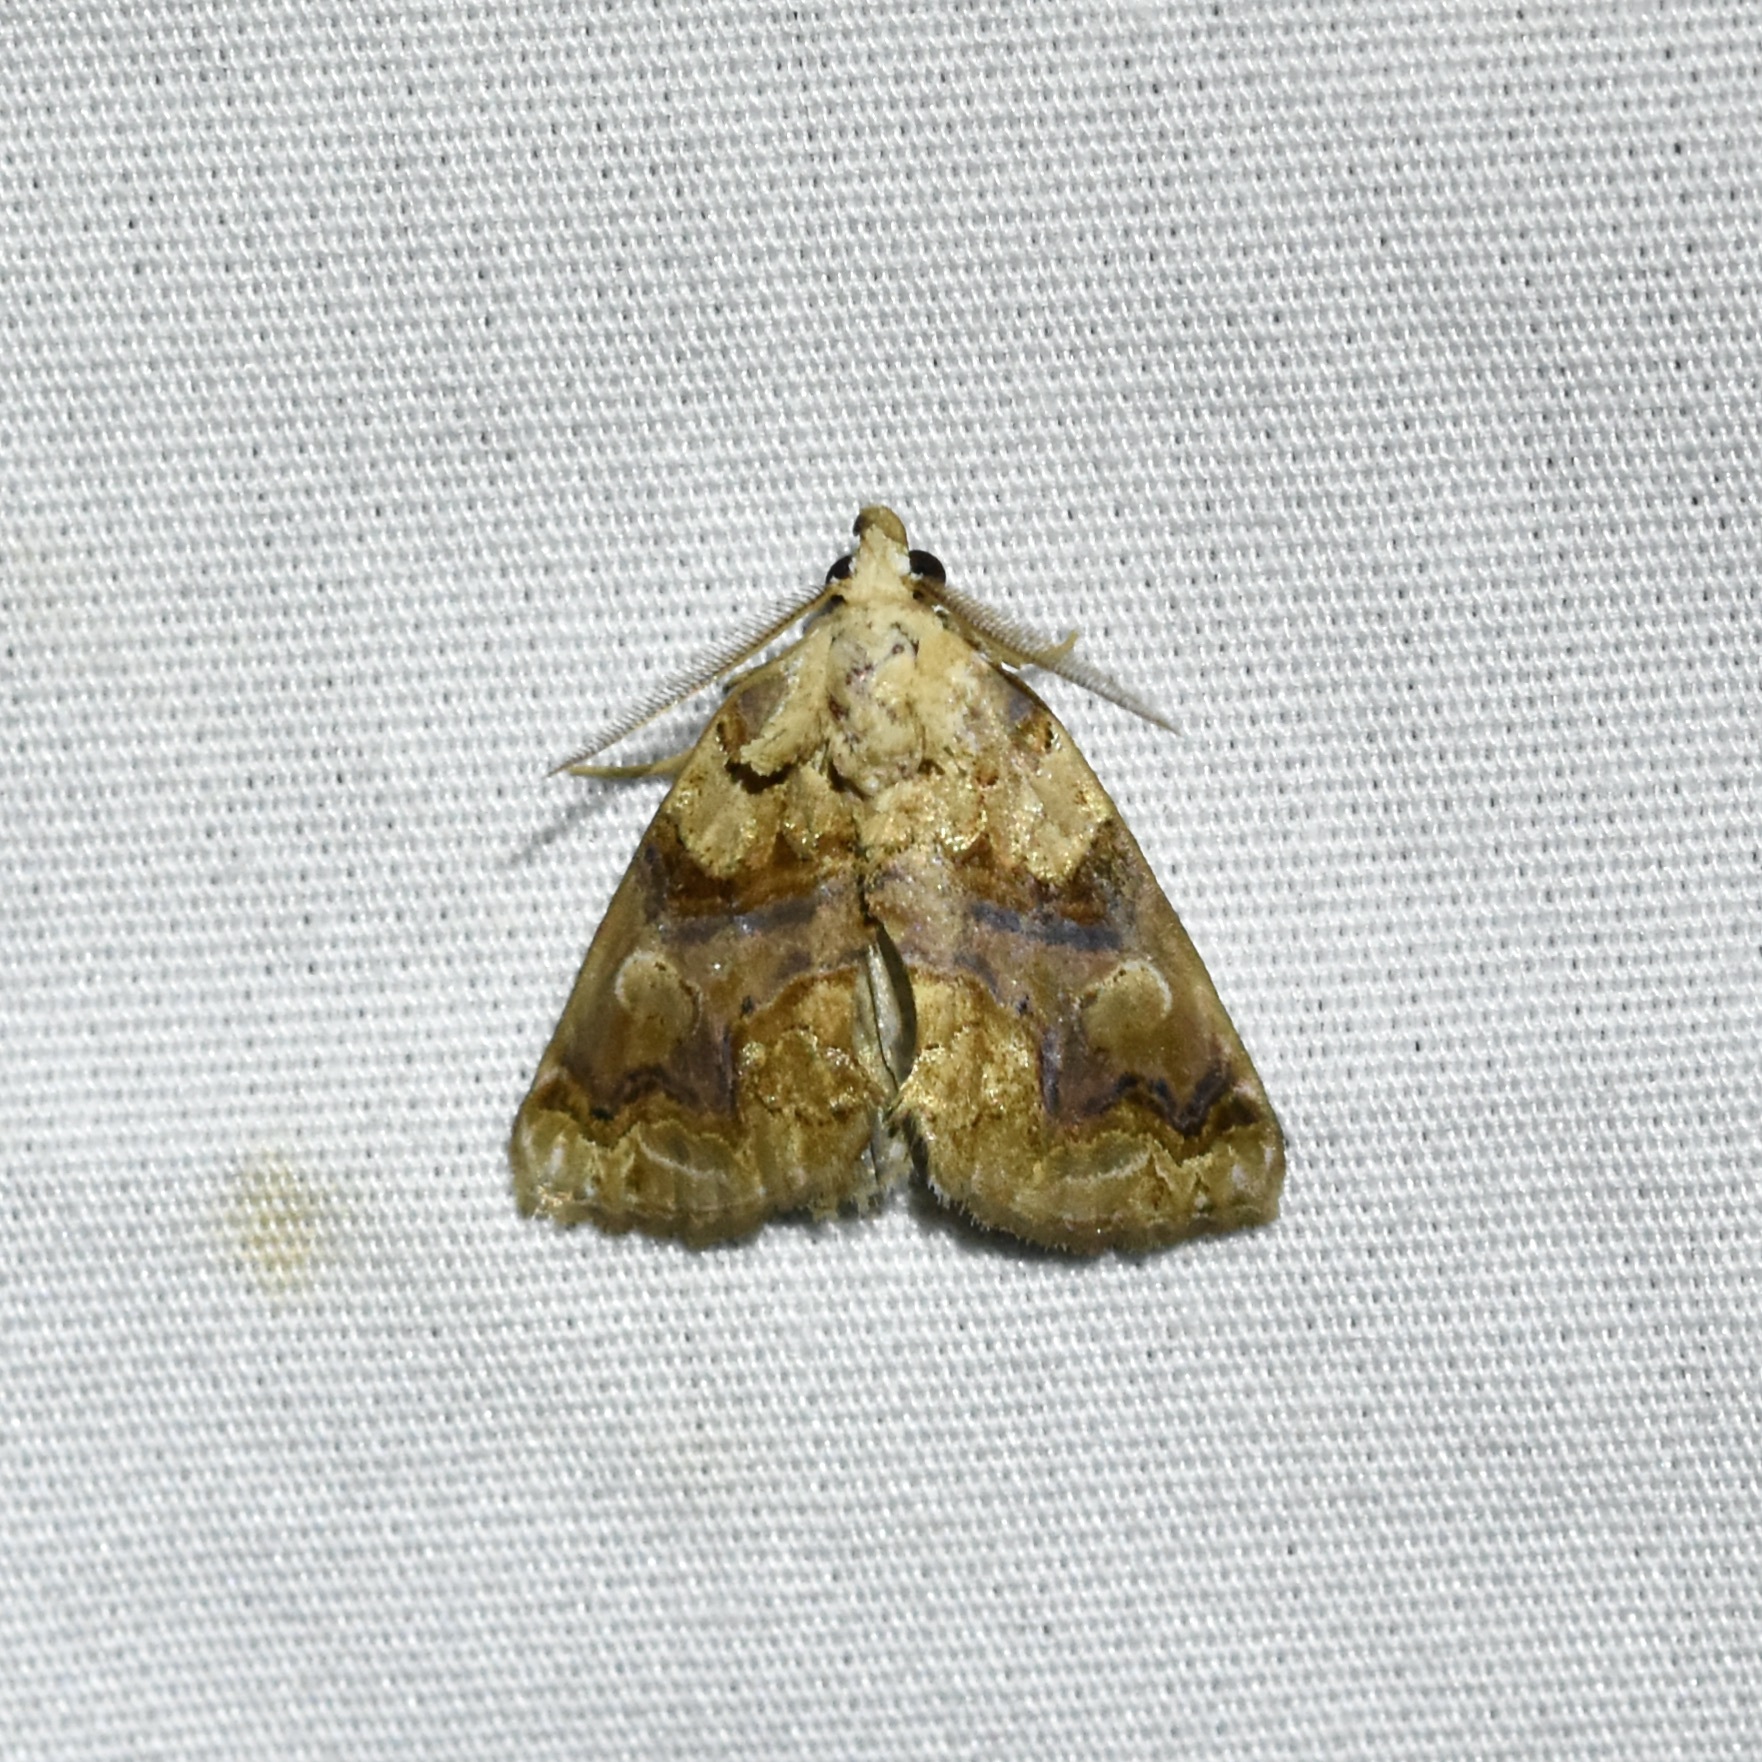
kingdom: Animalia
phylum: Arthropoda
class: Insecta
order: Lepidoptera
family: Erebidae
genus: Plusiodonta
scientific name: Plusiodonta compressipalpis
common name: Moonseed moth
